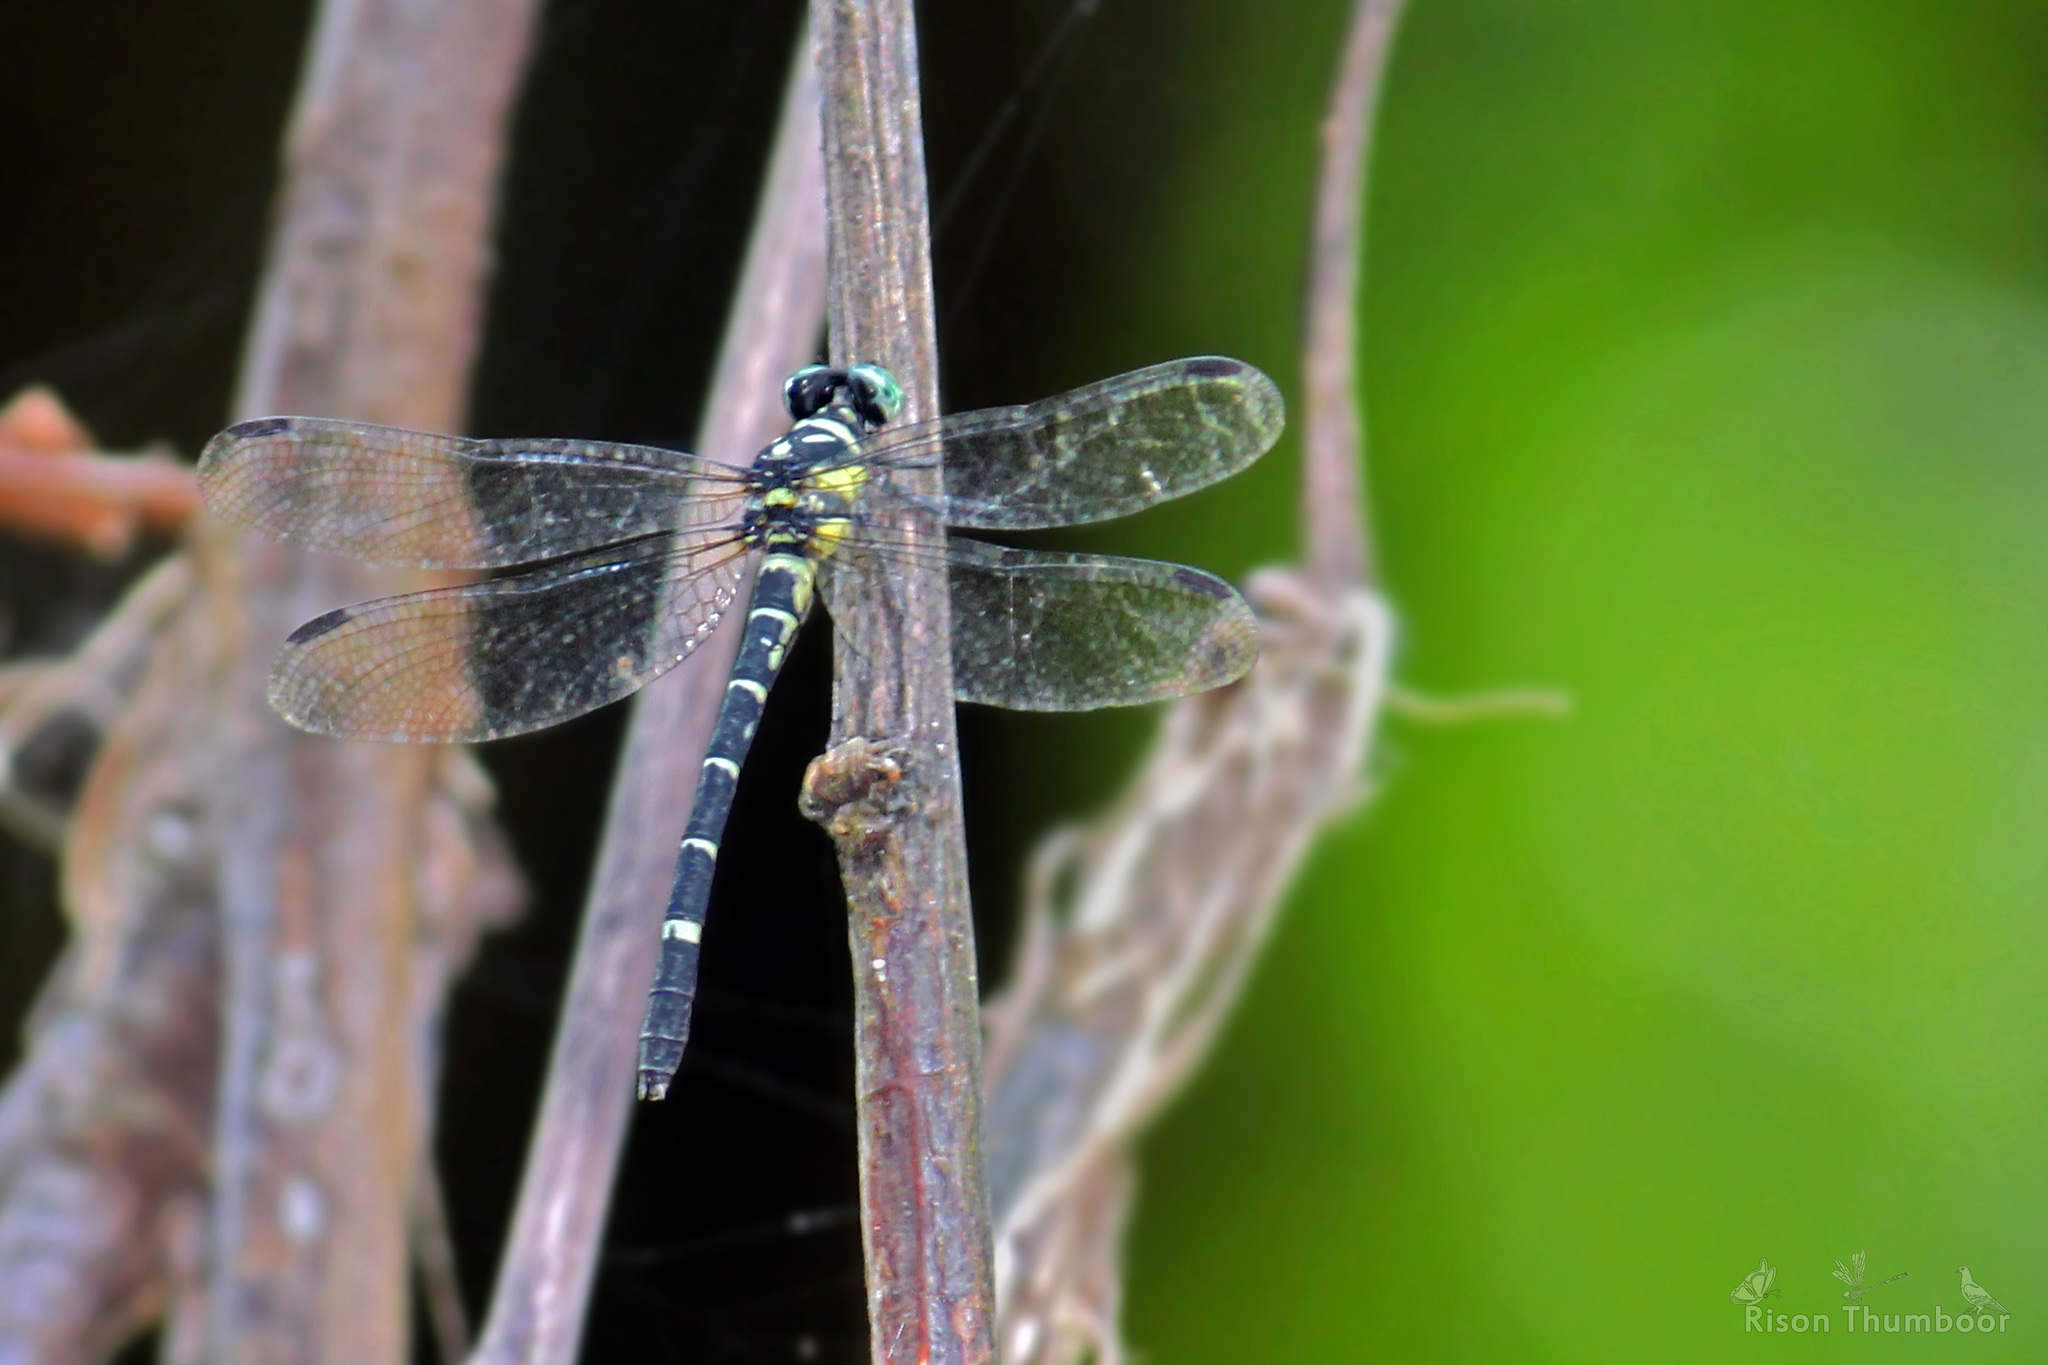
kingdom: Animalia
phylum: Arthropoda
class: Insecta
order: Odonata
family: Gomphidae
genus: Microgomphus
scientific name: Microgomphus souteri
